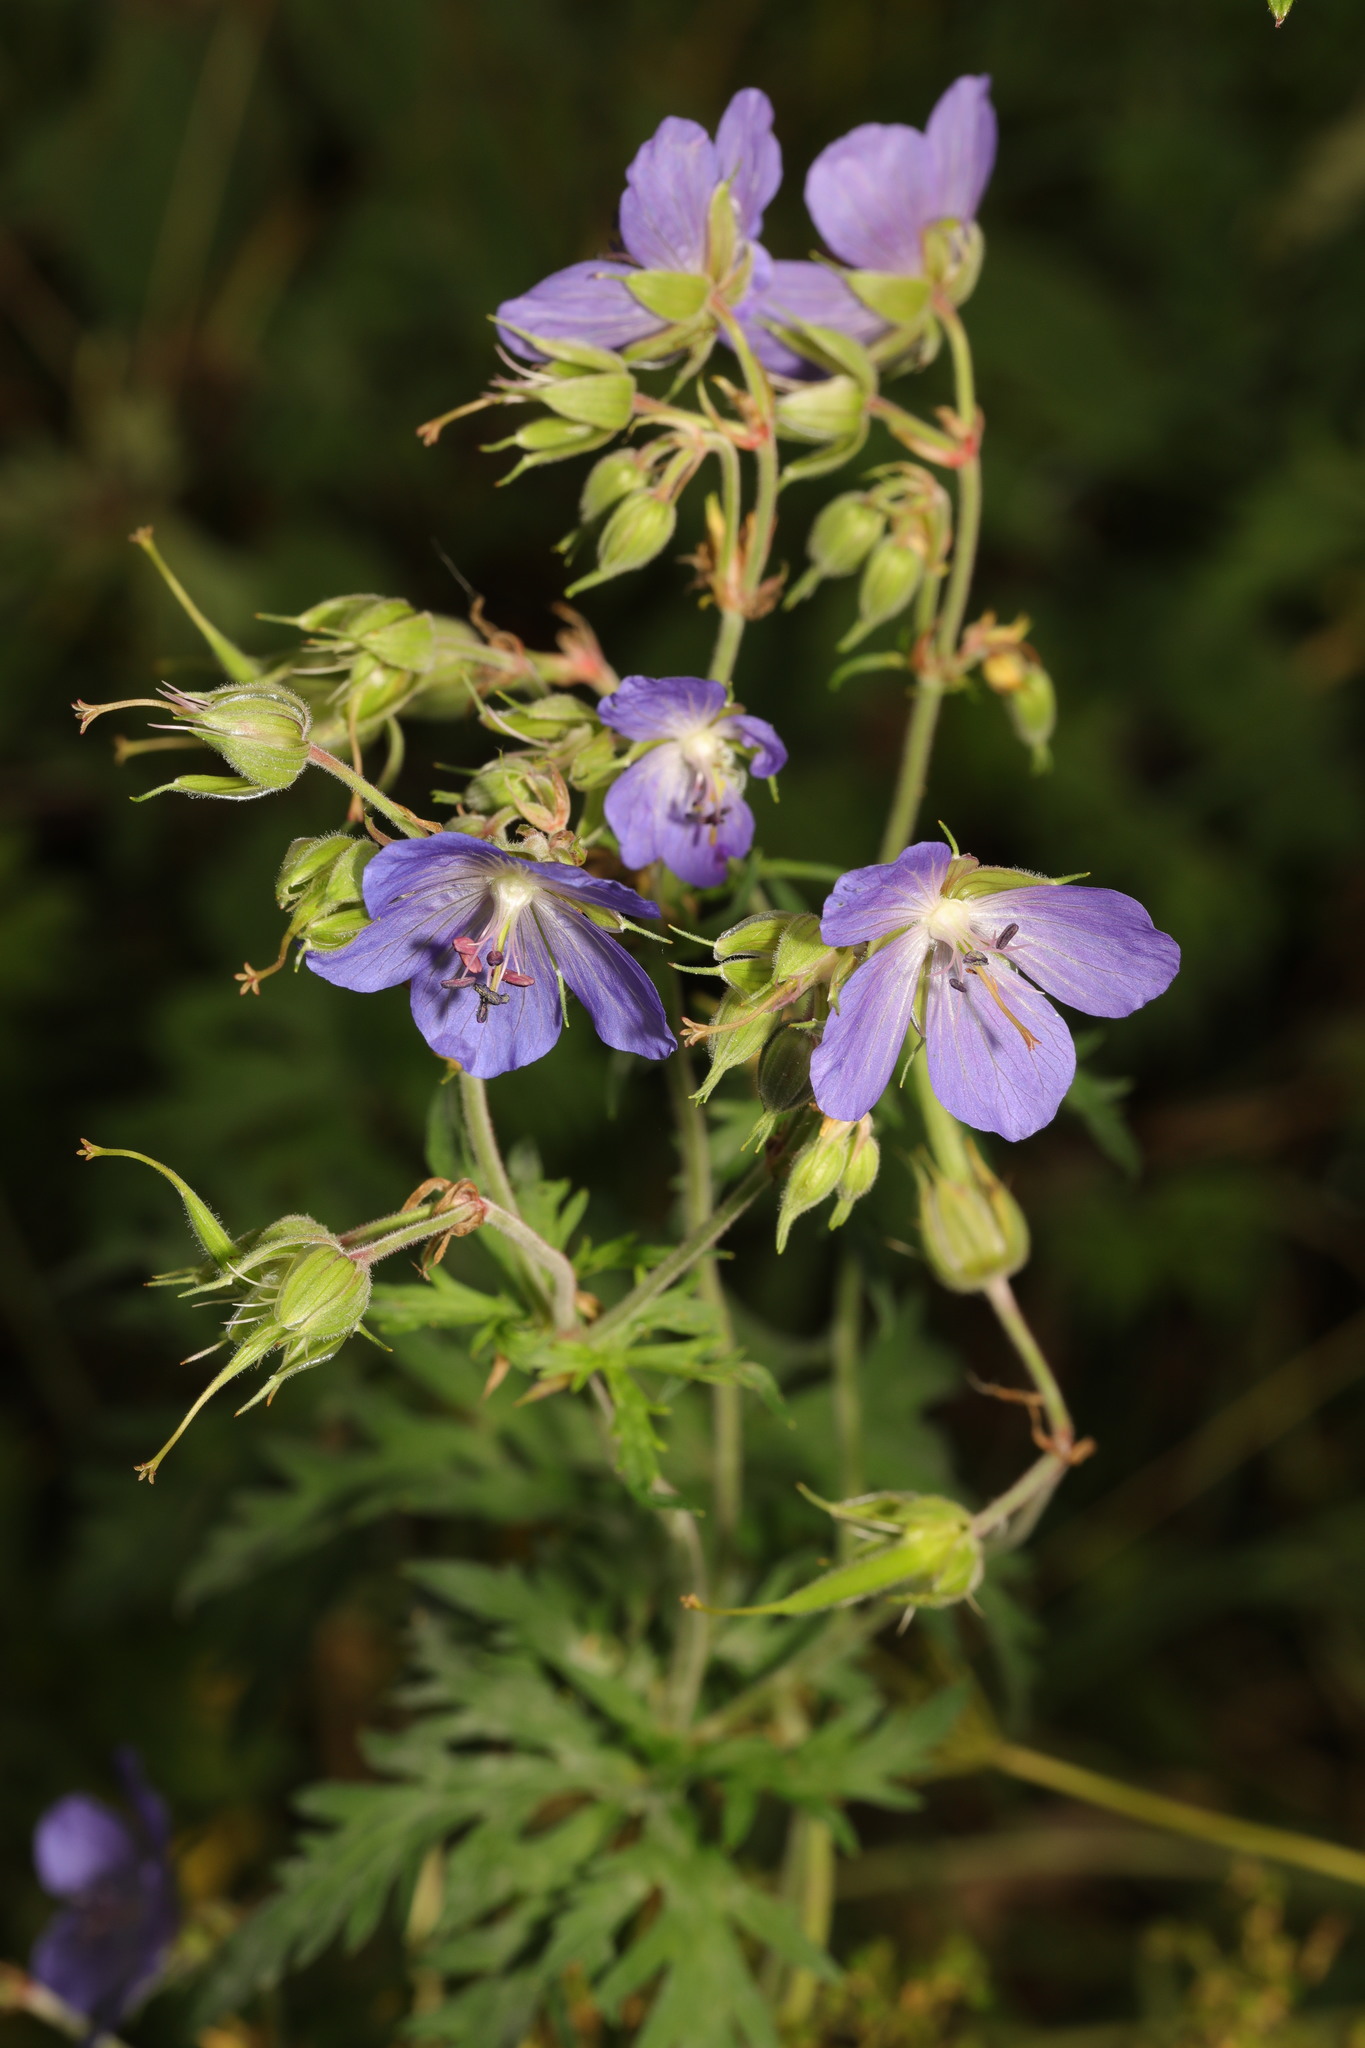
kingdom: Plantae
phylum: Tracheophyta
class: Magnoliopsida
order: Geraniales
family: Geraniaceae
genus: Geranium
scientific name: Geranium pratense
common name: Meadow crane's-bill
